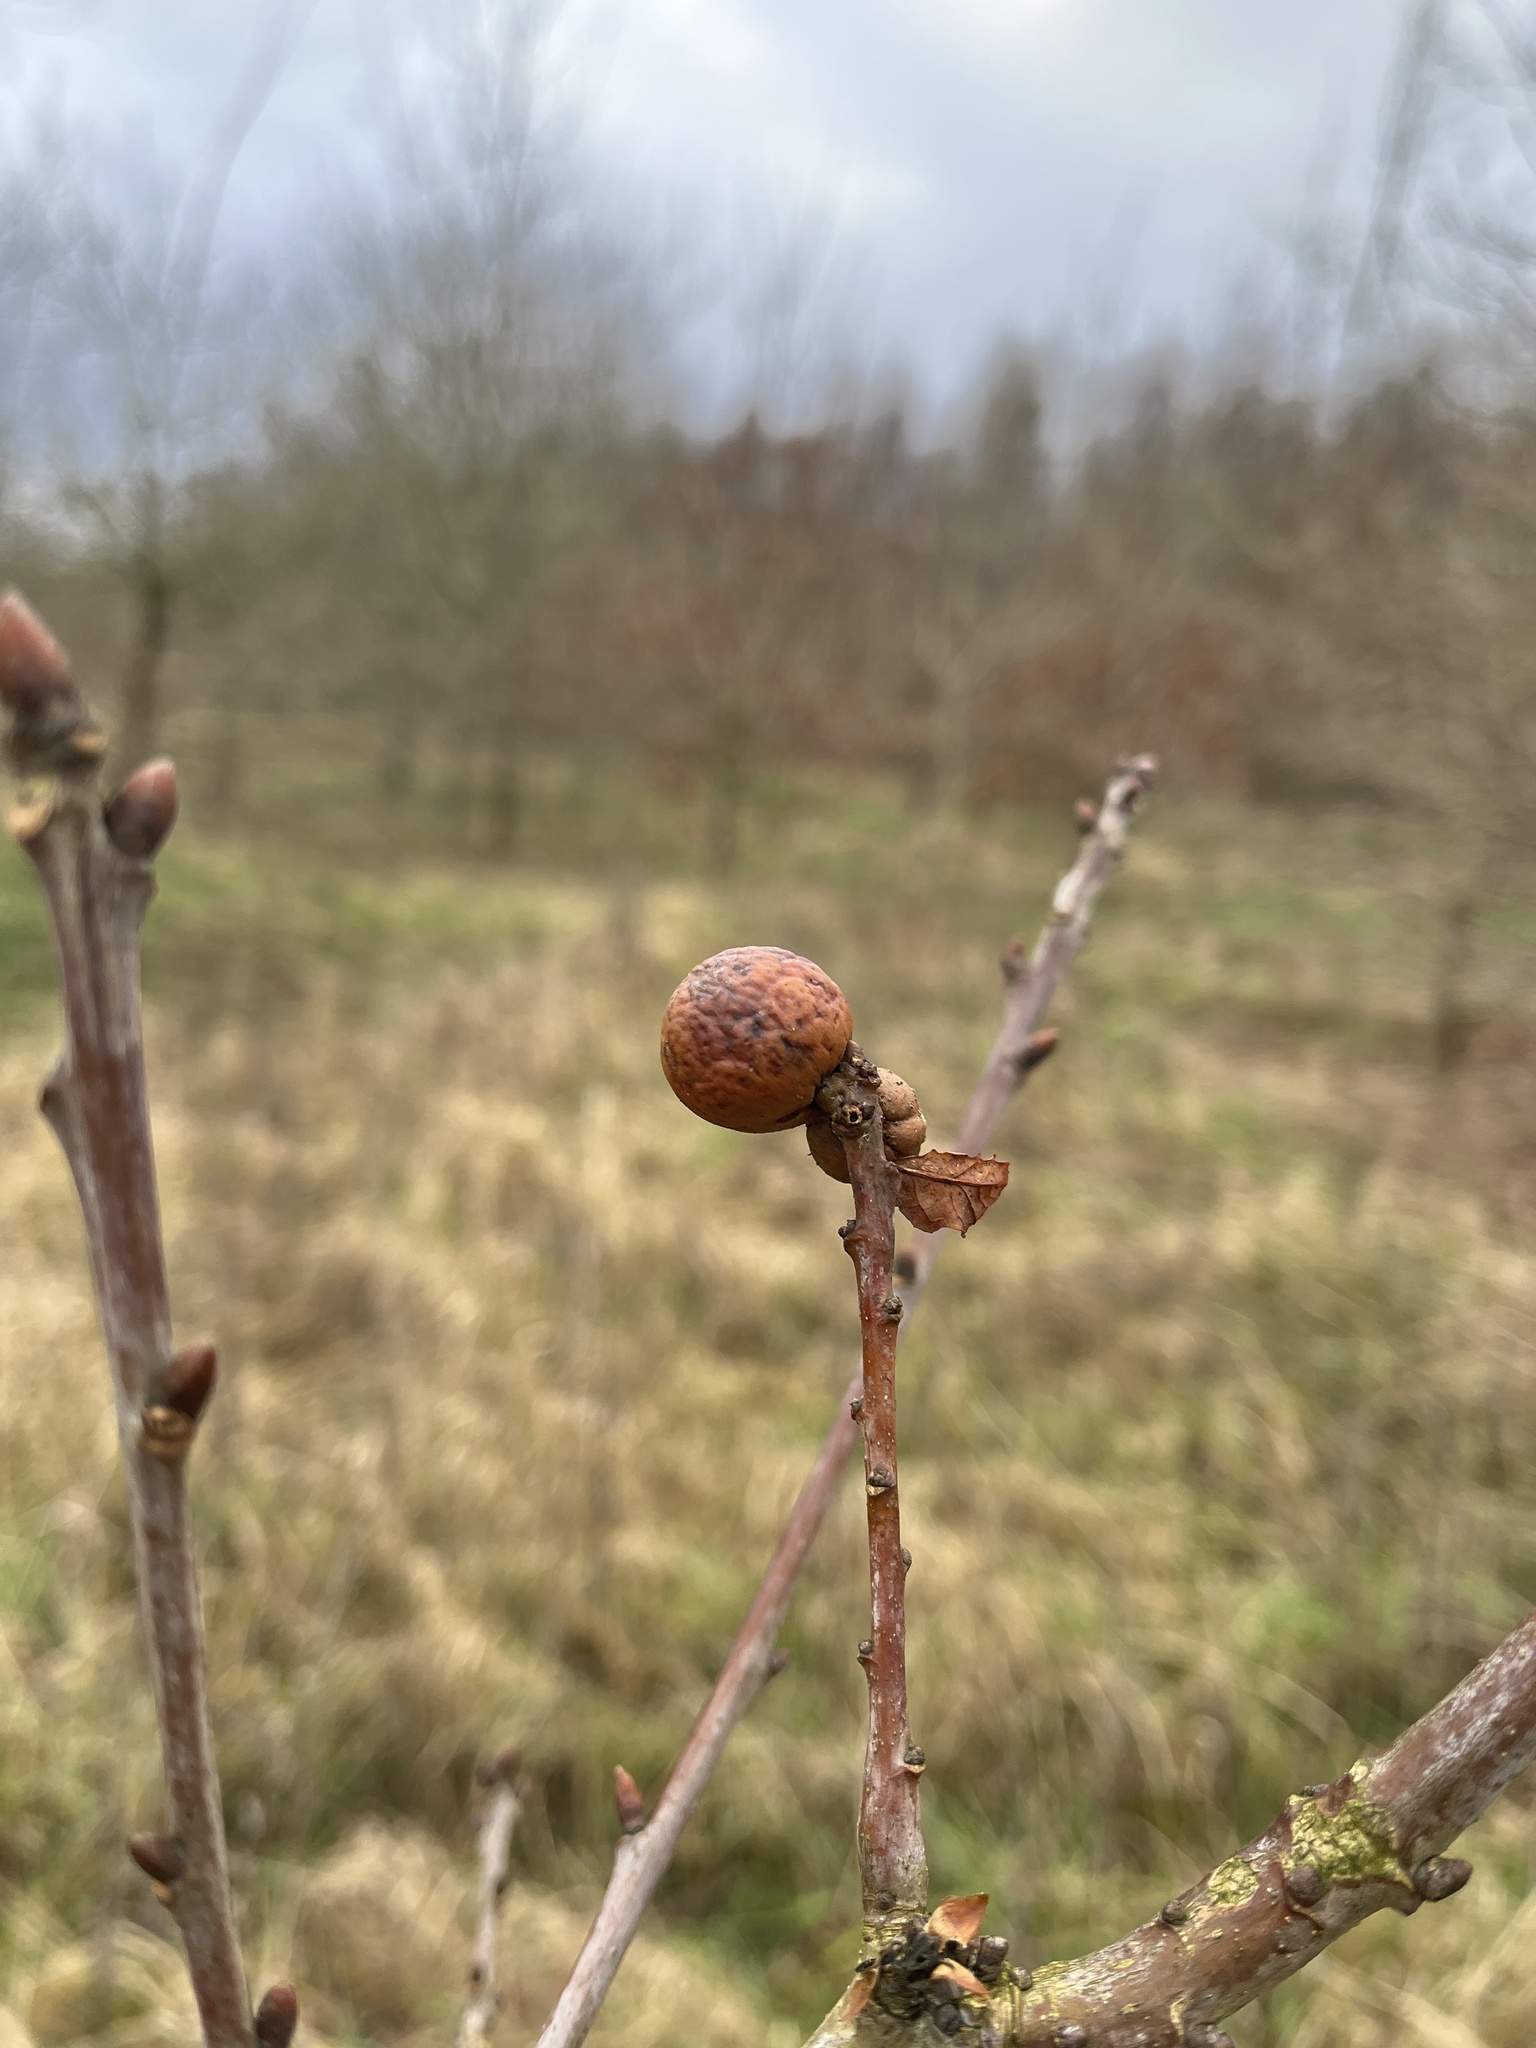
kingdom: Animalia
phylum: Arthropoda
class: Insecta
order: Hymenoptera
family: Cynipidae
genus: Andricus
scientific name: Andricus kollari
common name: Marble gall
